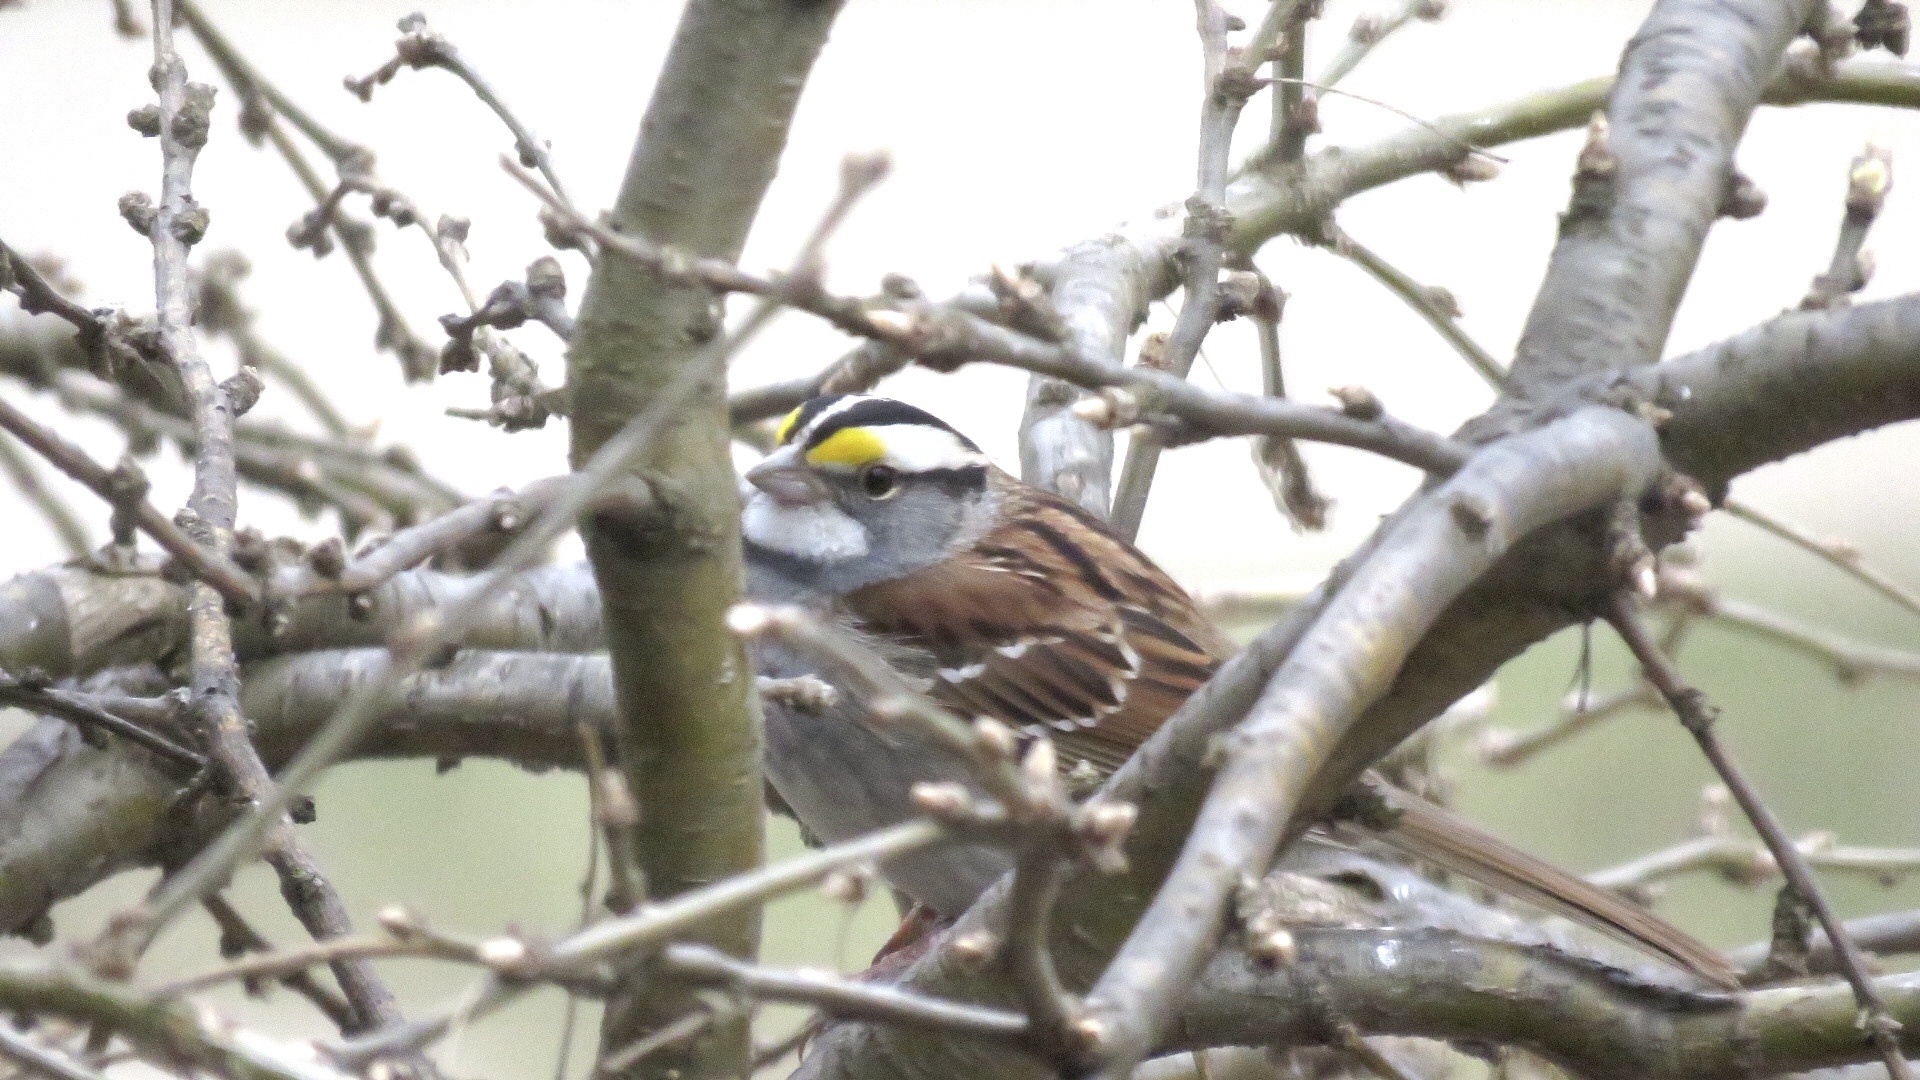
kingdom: Animalia
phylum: Chordata
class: Aves
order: Passeriformes
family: Passerellidae
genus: Zonotrichia
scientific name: Zonotrichia albicollis
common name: White-throated sparrow
